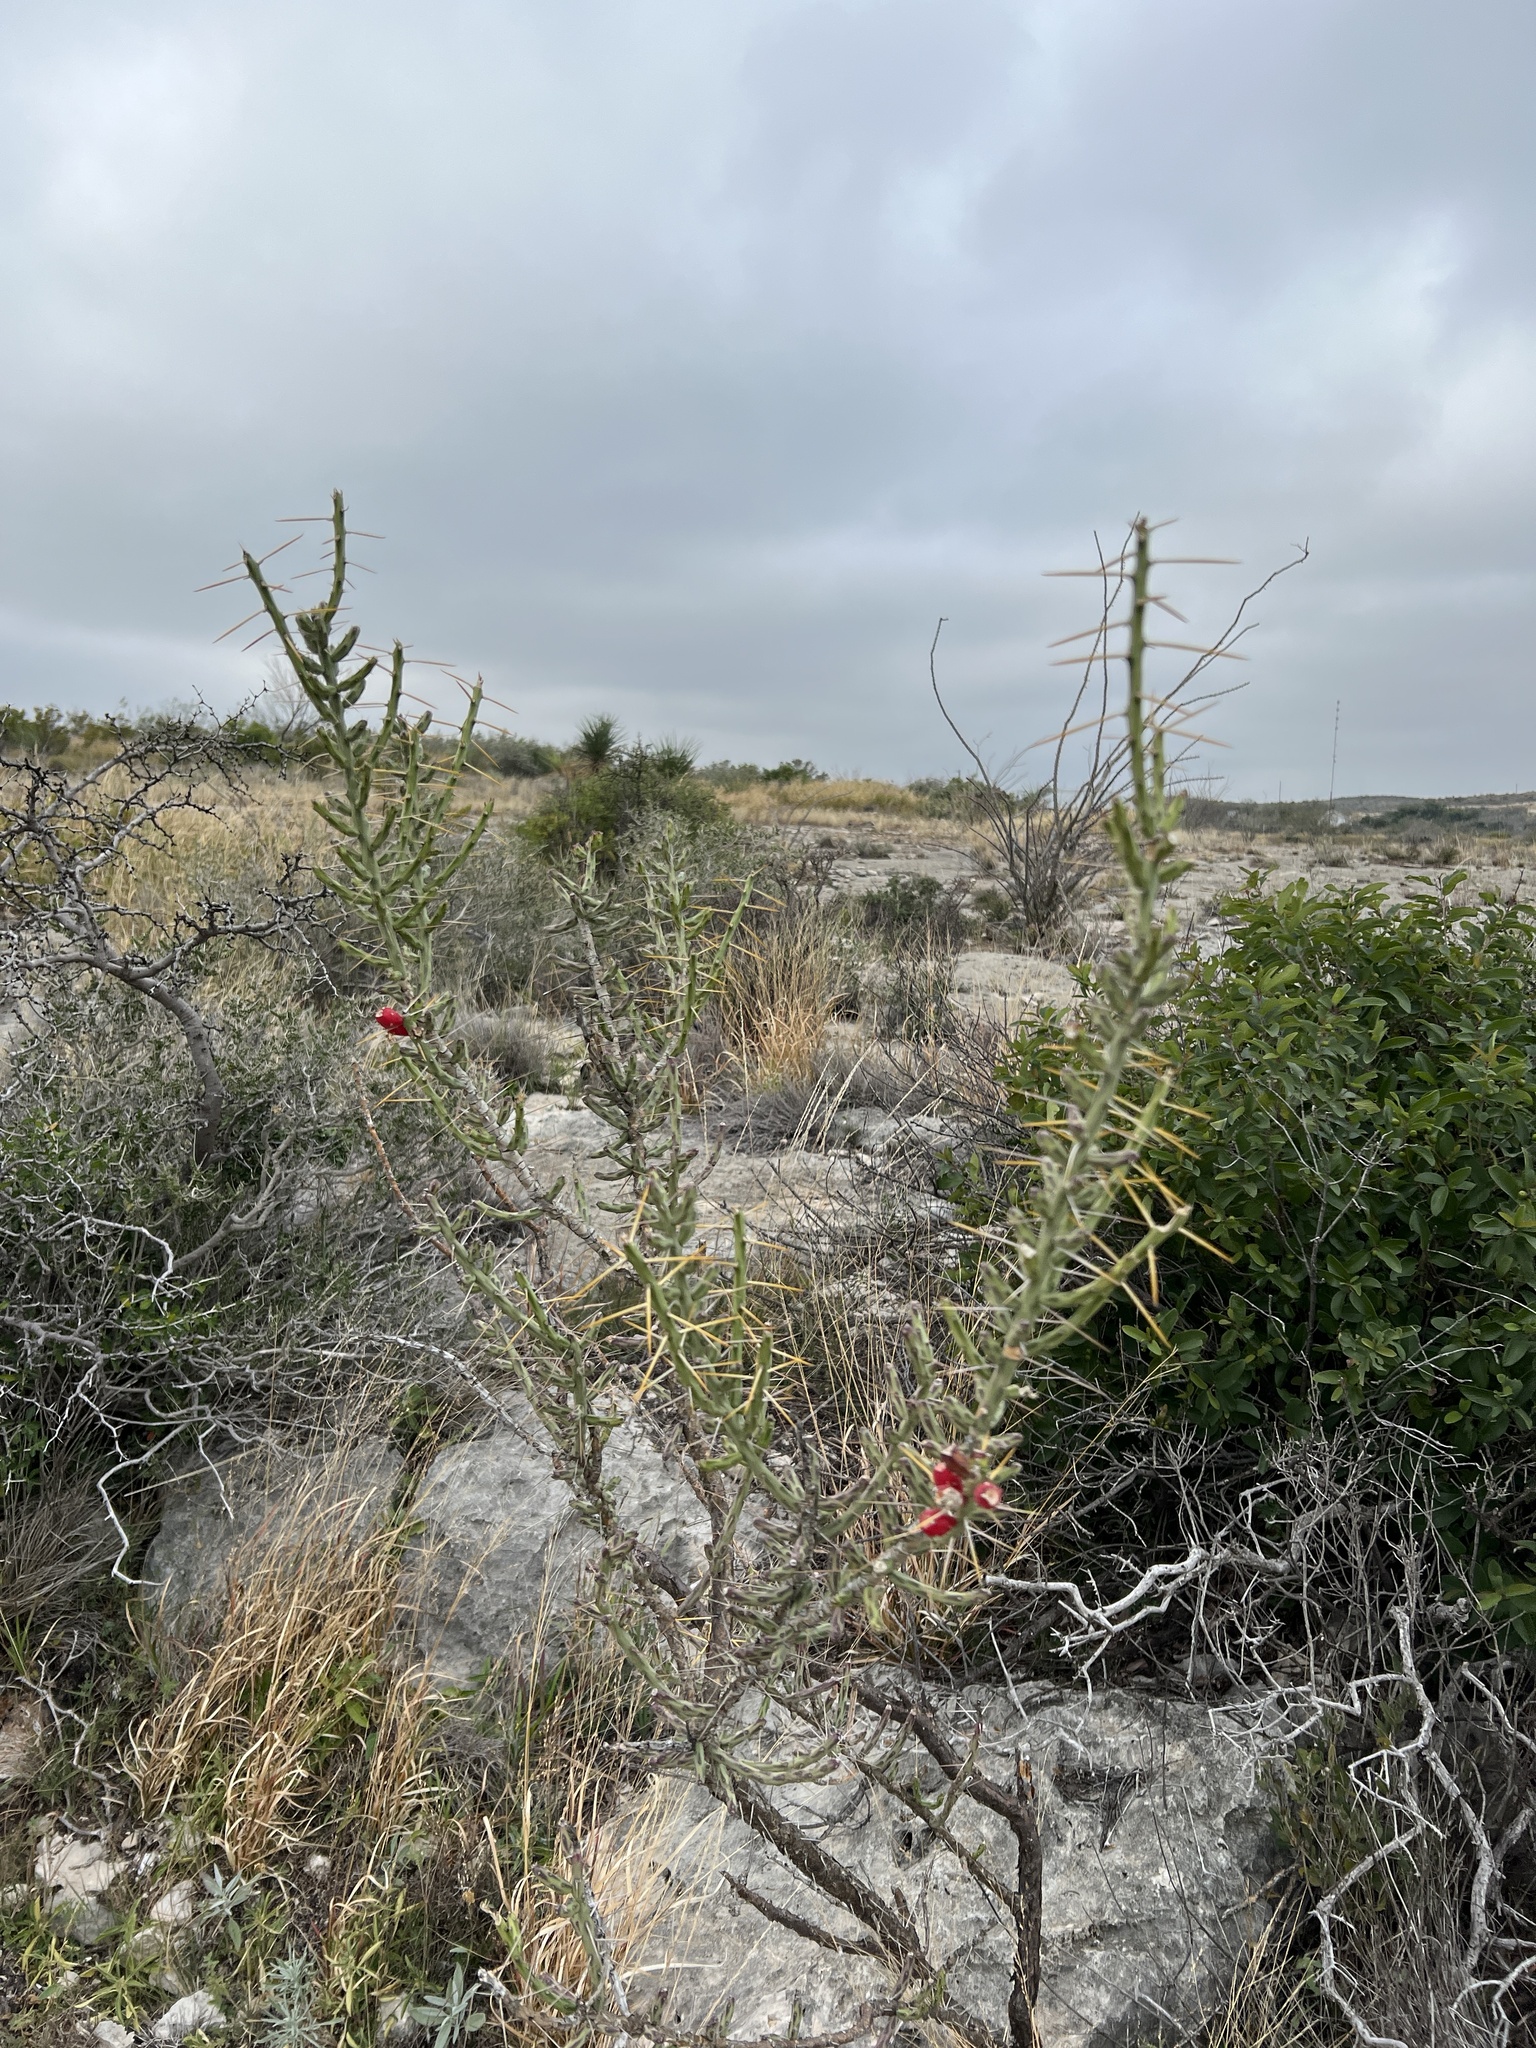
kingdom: Plantae
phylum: Tracheophyta
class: Magnoliopsida
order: Caryophyllales
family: Cactaceae
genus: Cylindropuntia
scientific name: Cylindropuntia leptocaulis
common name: Christmas cactus
